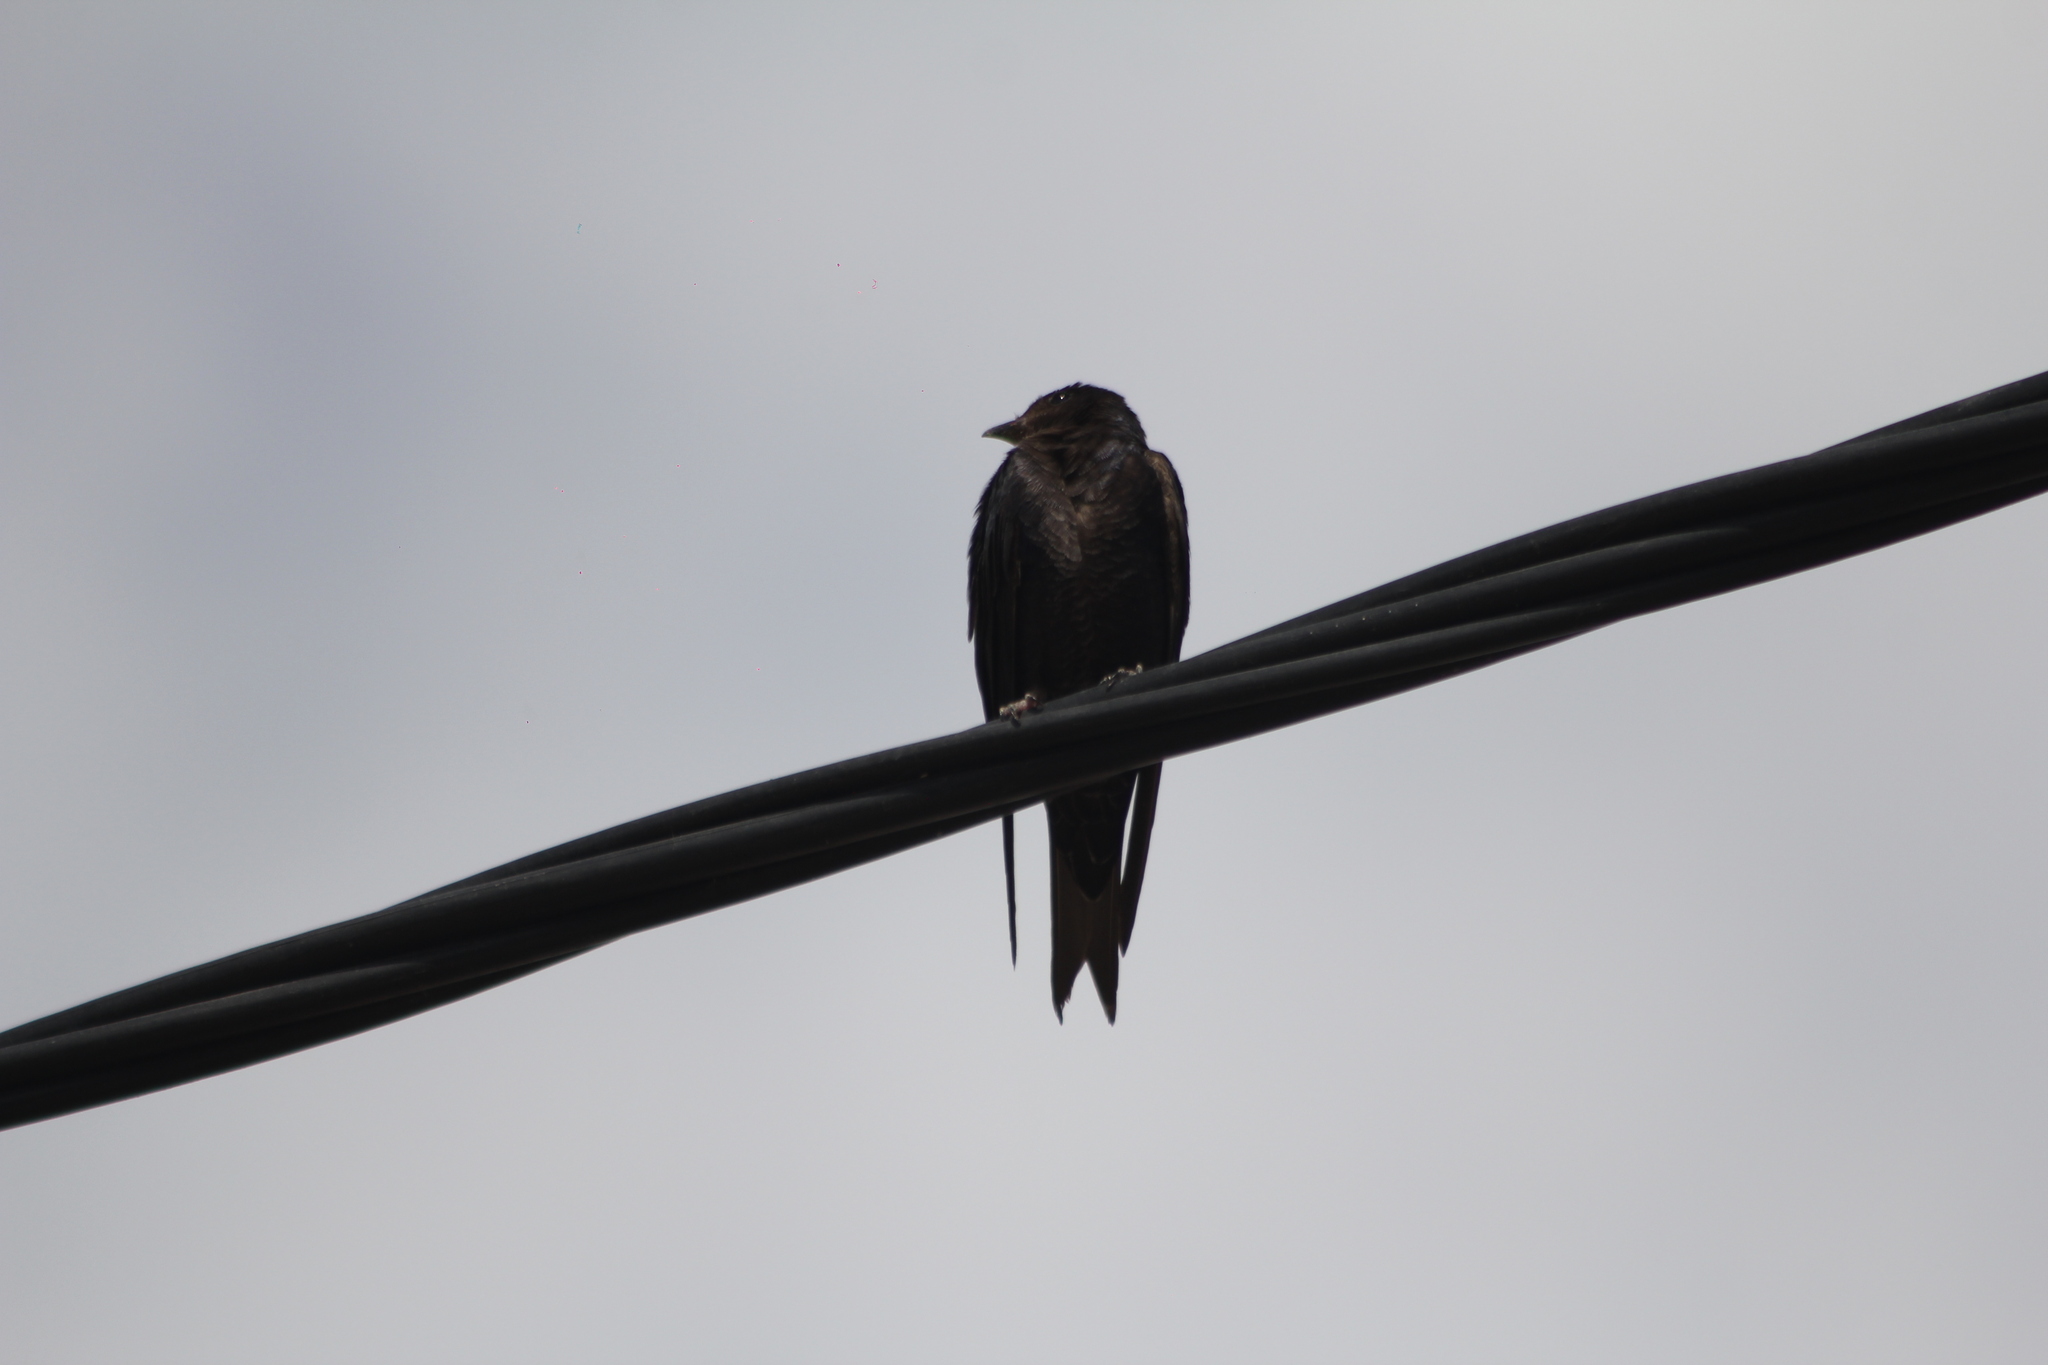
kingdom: Animalia
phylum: Chordata
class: Aves
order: Passeriformes
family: Hirundinidae
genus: Progne
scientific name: Progne elegans
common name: Southern martin
